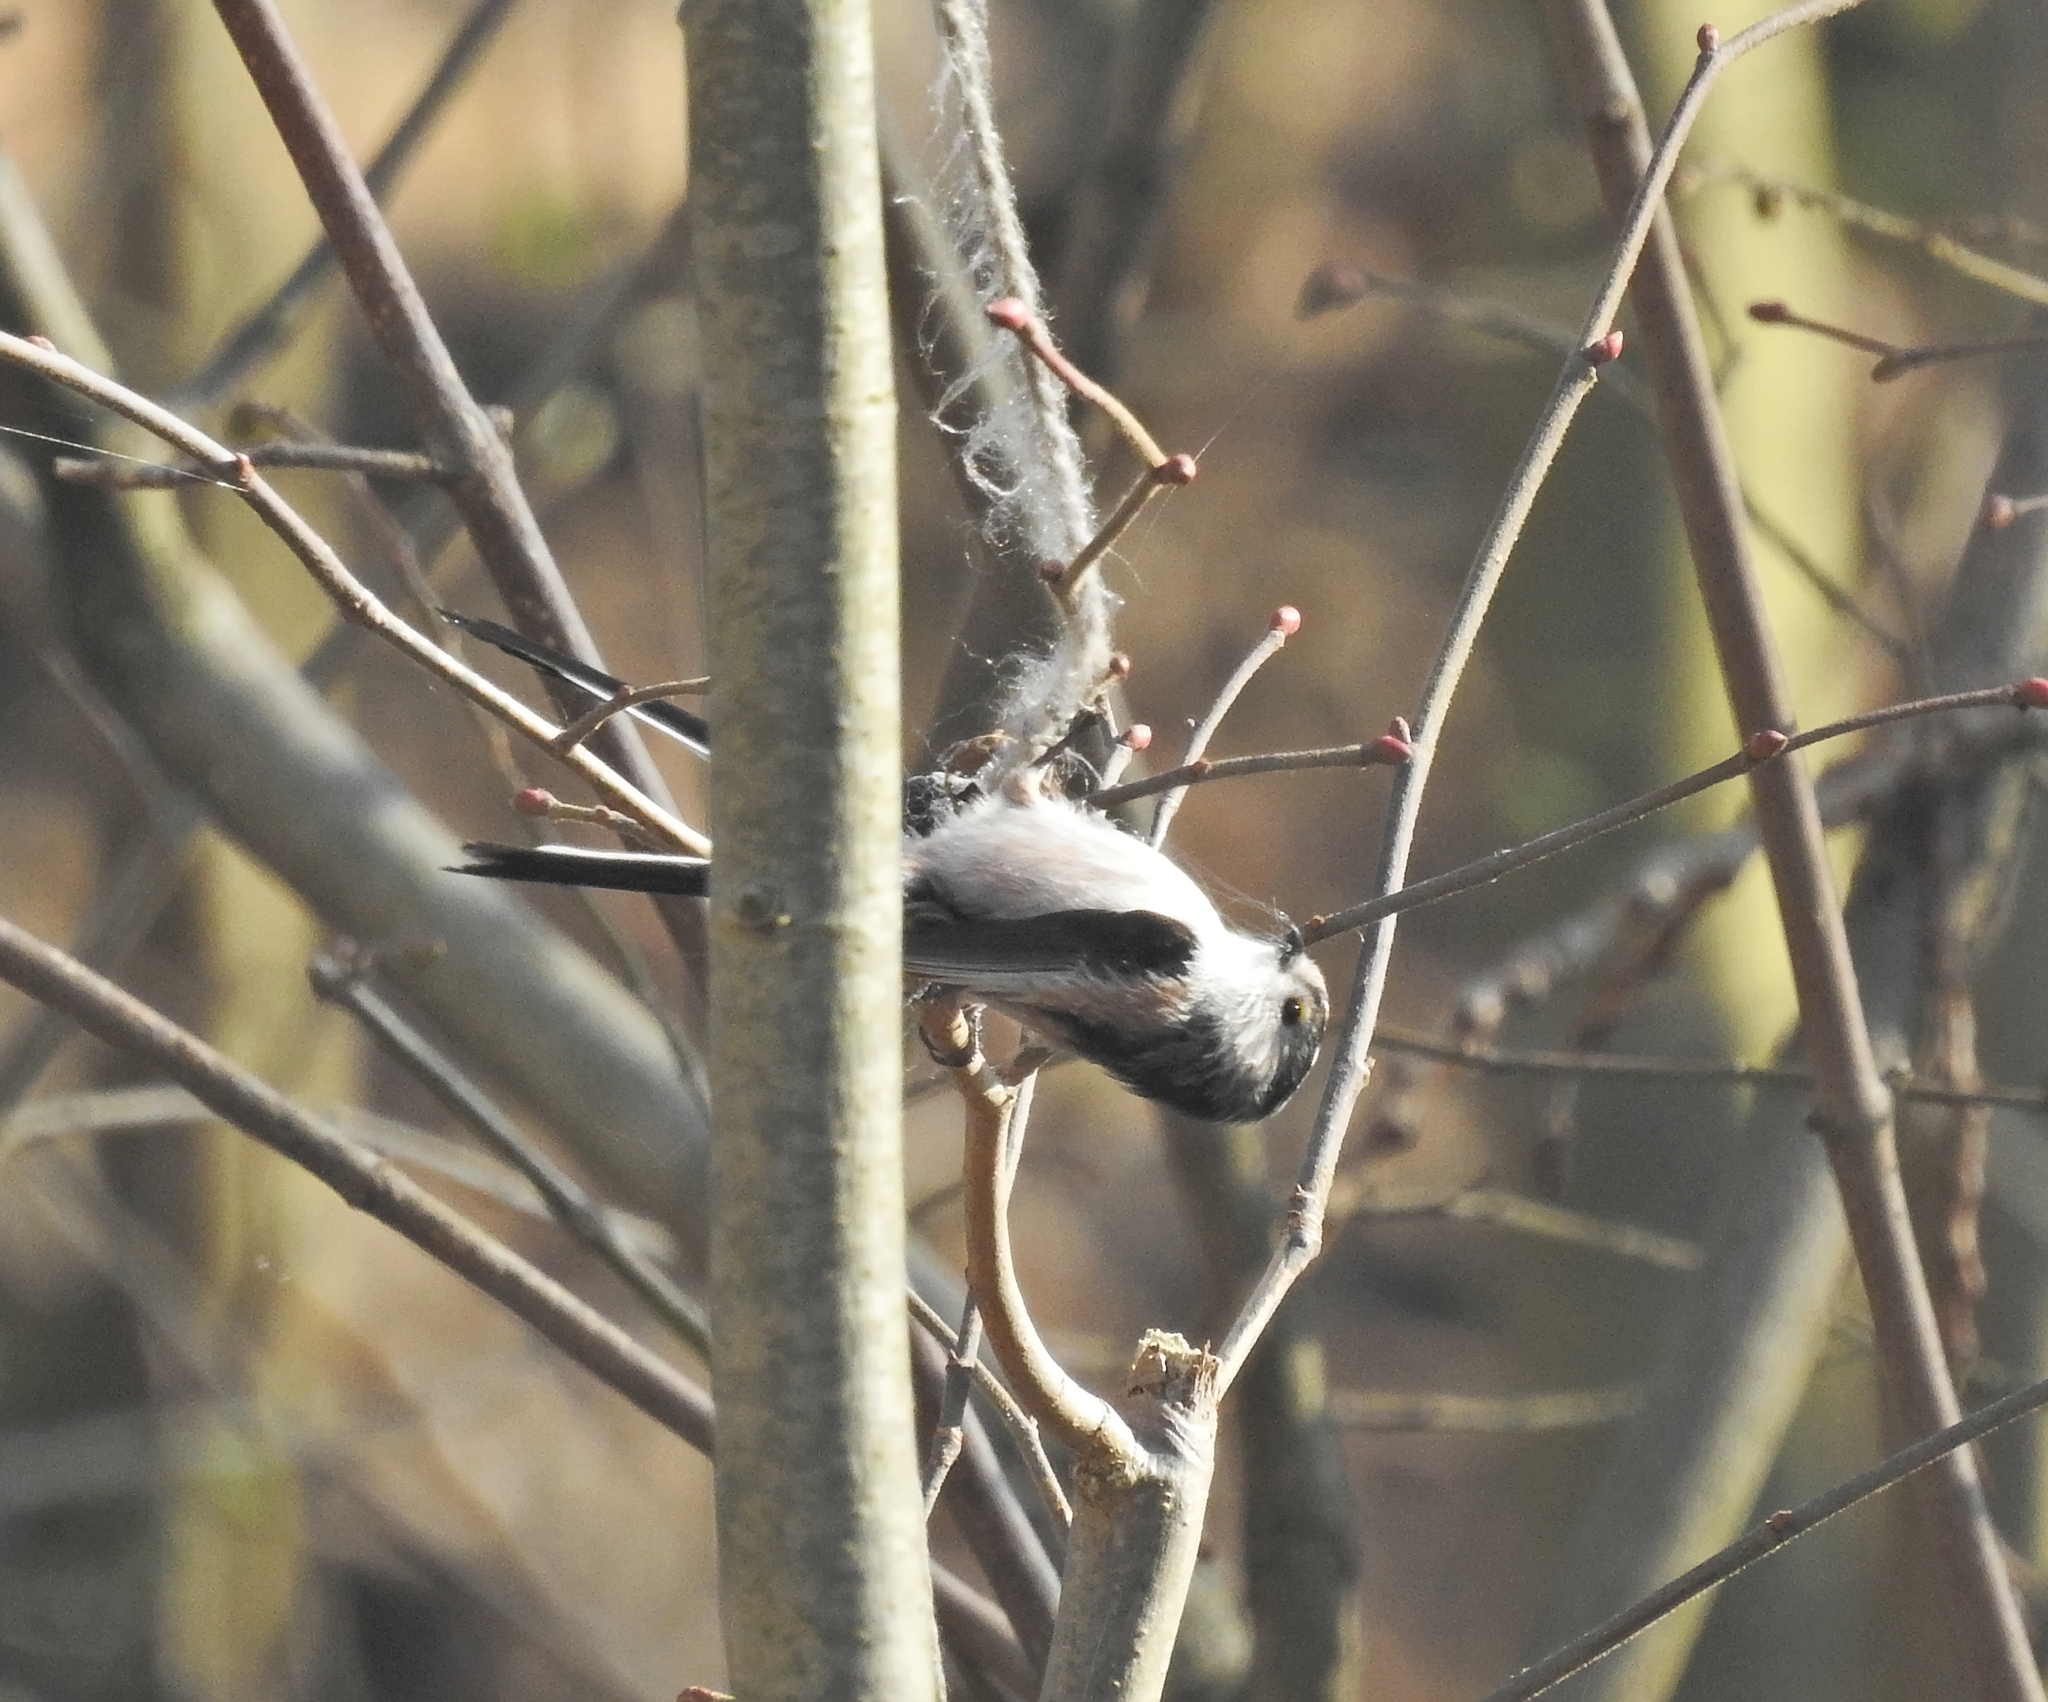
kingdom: Animalia
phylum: Chordata
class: Aves
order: Passeriformes
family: Aegithalidae
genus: Aegithalos
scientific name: Aegithalos caudatus
